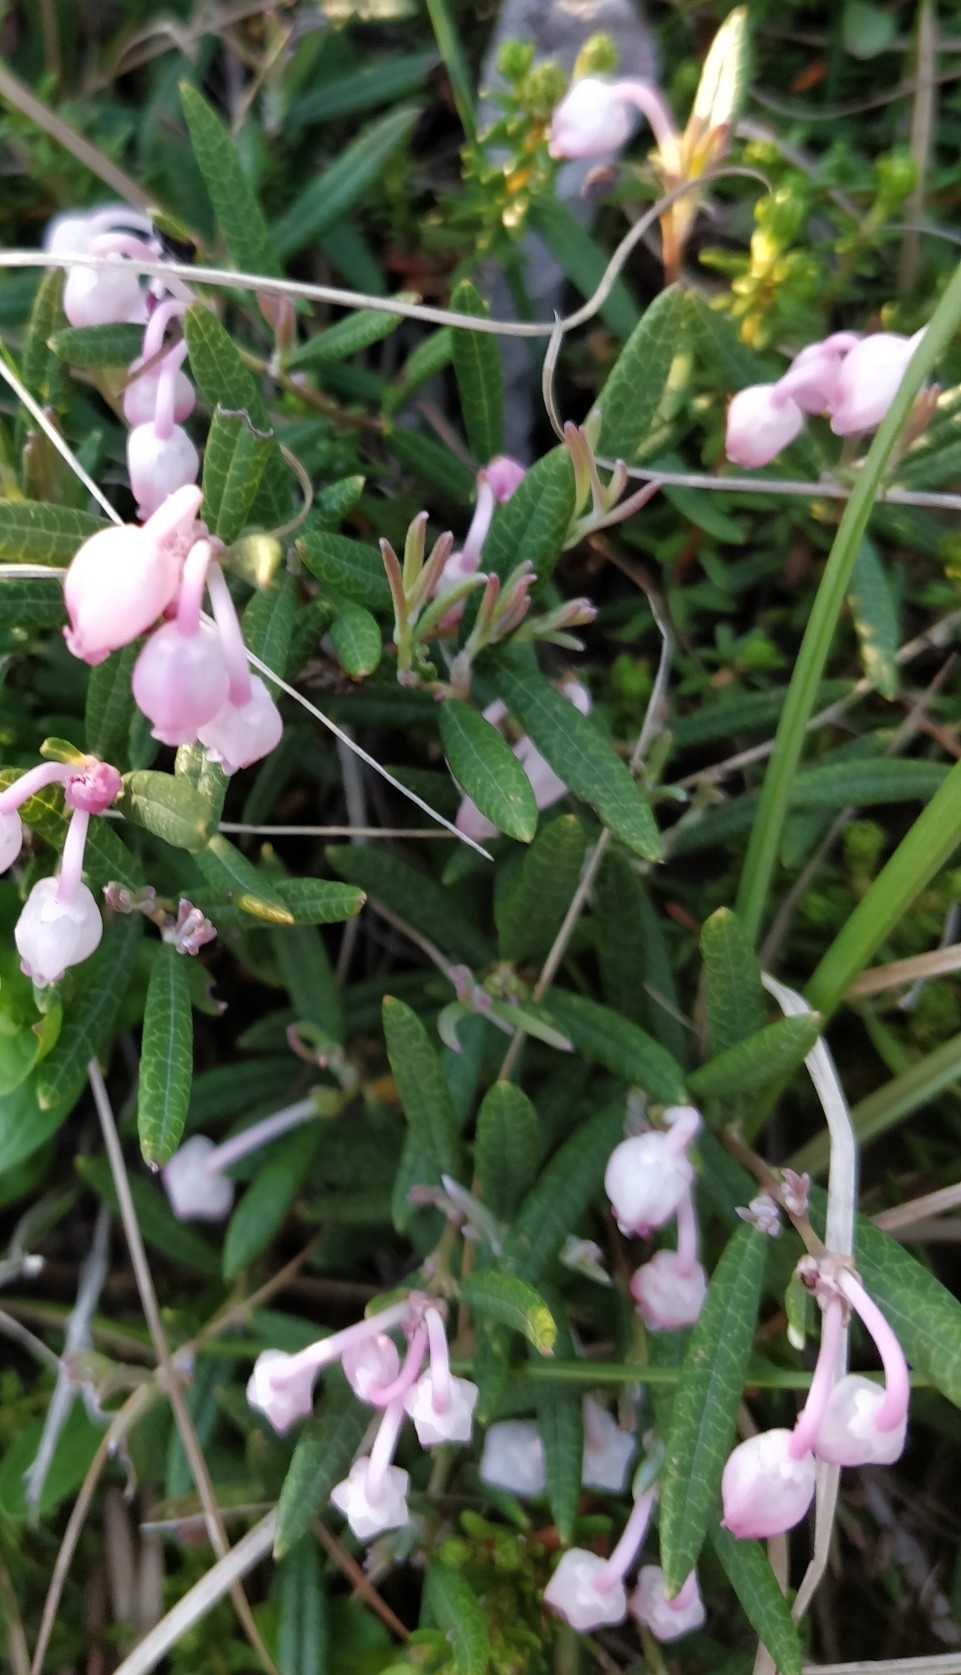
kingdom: Plantae
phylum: Tracheophyta
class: Magnoliopsida
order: Ericales
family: Ericaceae
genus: Andromeda
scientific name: Andromeda polifolia
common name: Bog-rosemary
